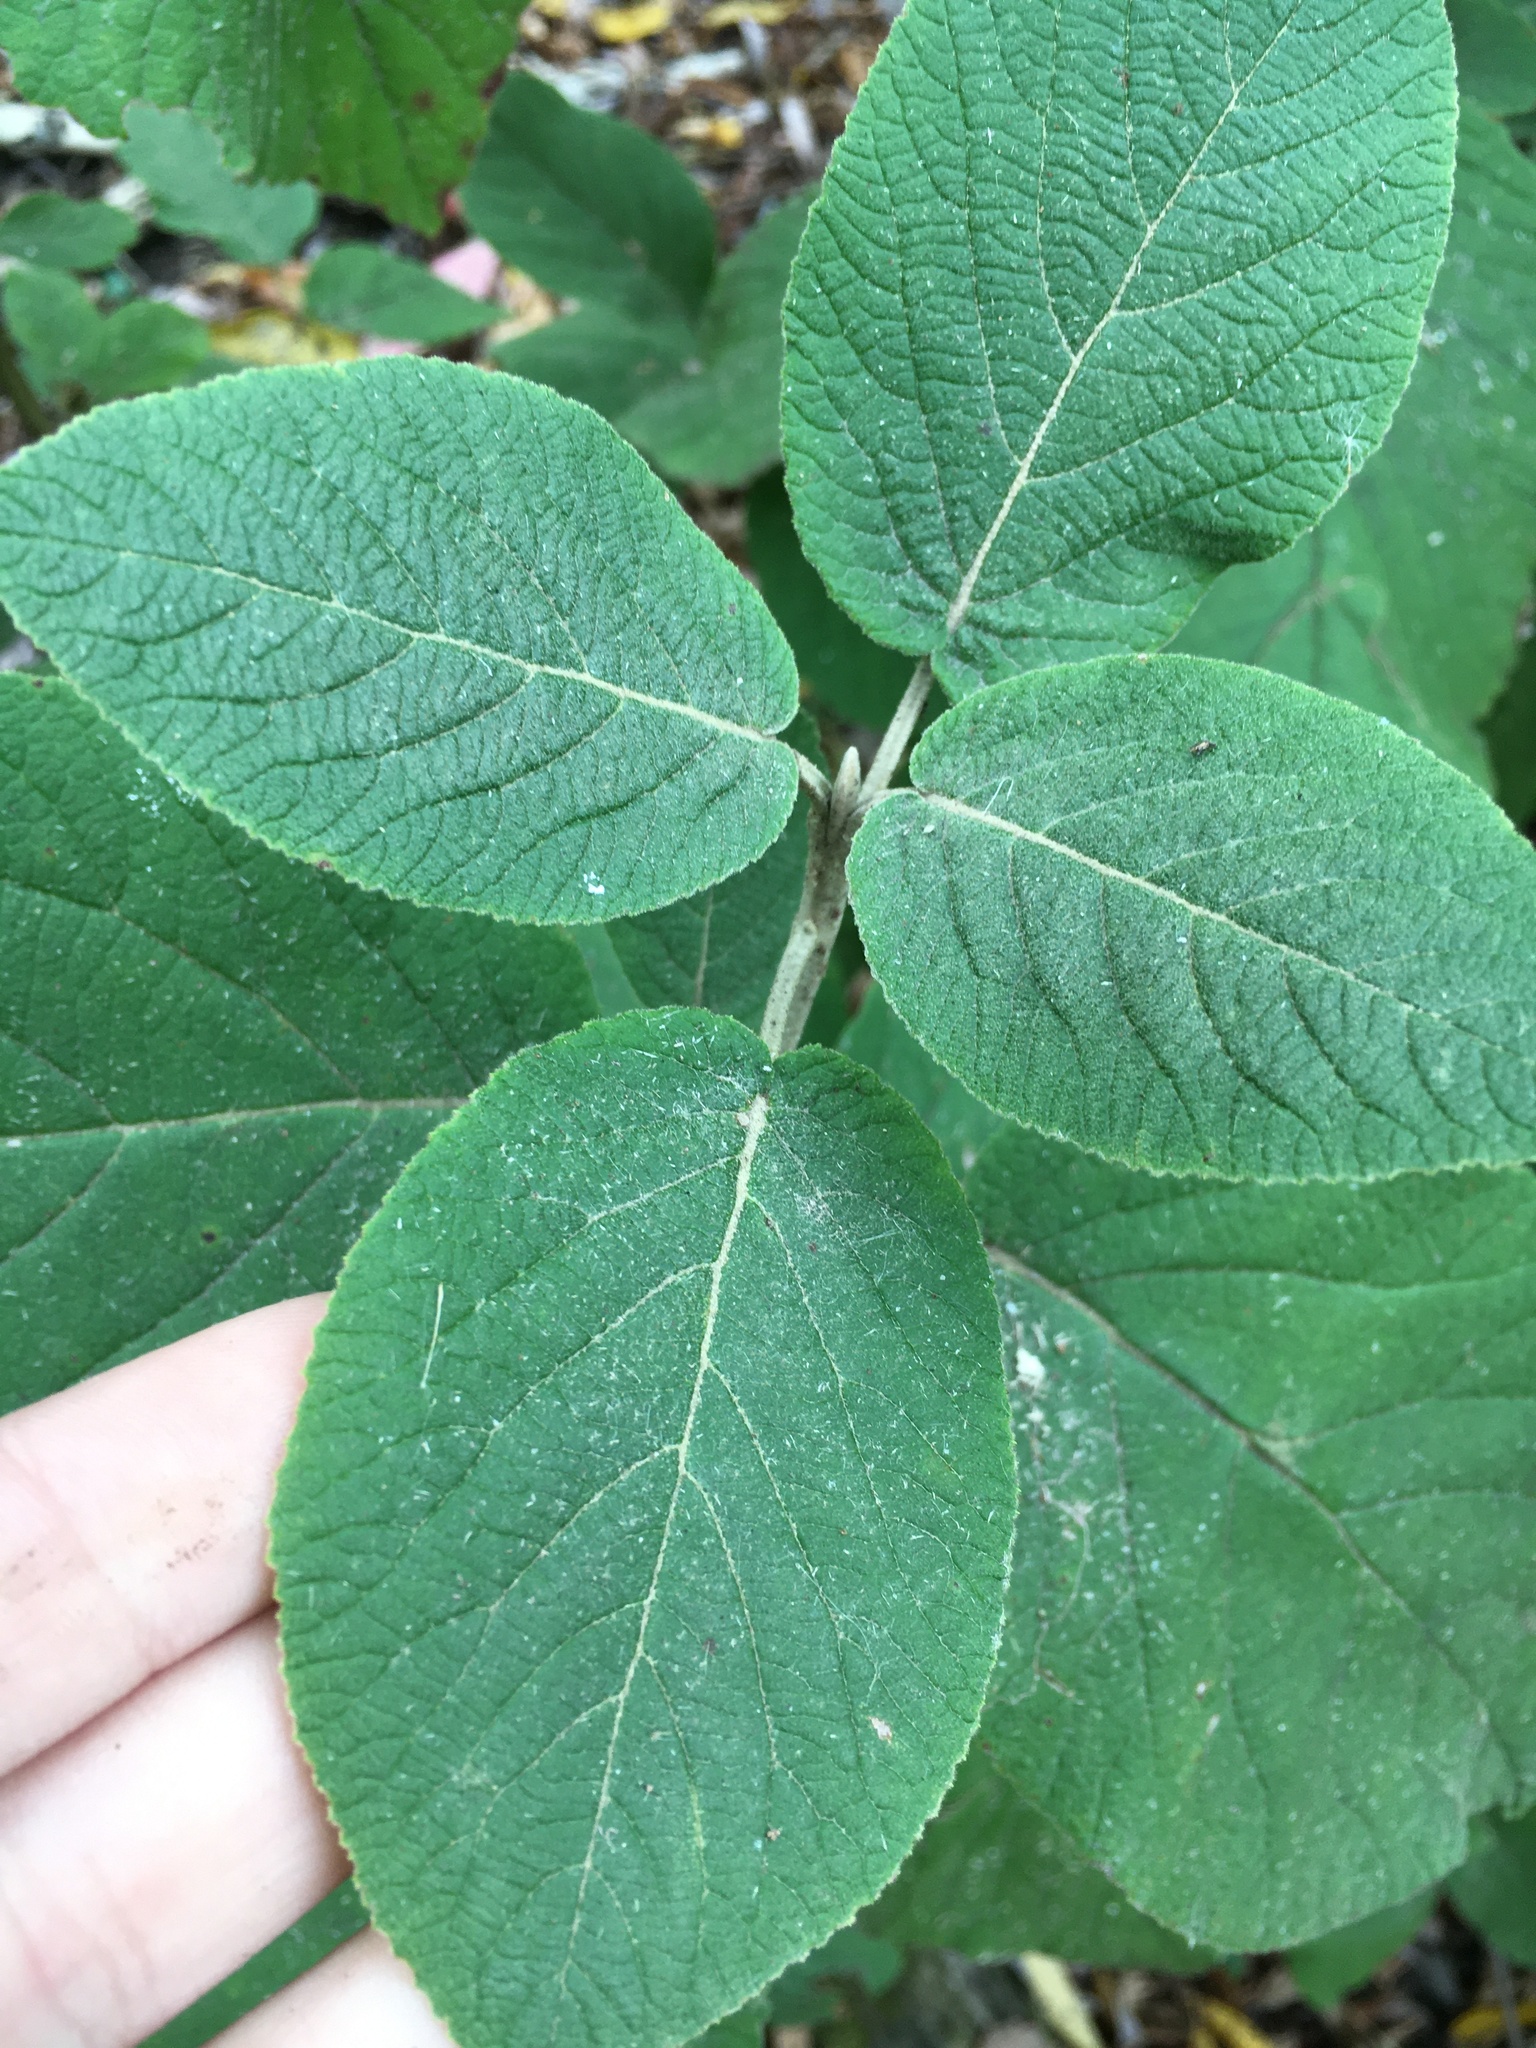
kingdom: Plantae
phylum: Tracheophyta
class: Magnoliopsida
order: Dipsacales
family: Viburnaceae
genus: Viburnum
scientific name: Viburnum lantana
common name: Wayfaring tree
